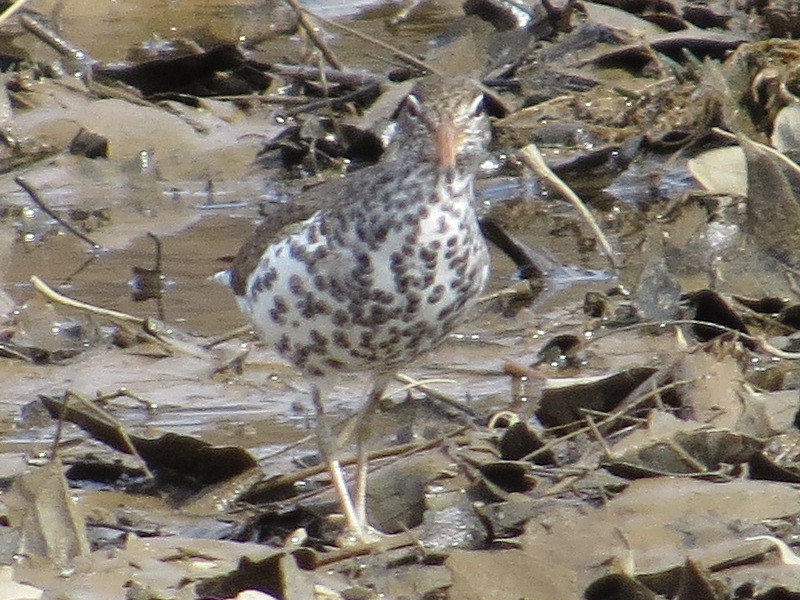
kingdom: Animalia
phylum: Chordata
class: Aves
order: Charadriiformes
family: Scolopacidae
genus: Actitis
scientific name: Actitis macularius
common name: Spotted sandpiper
